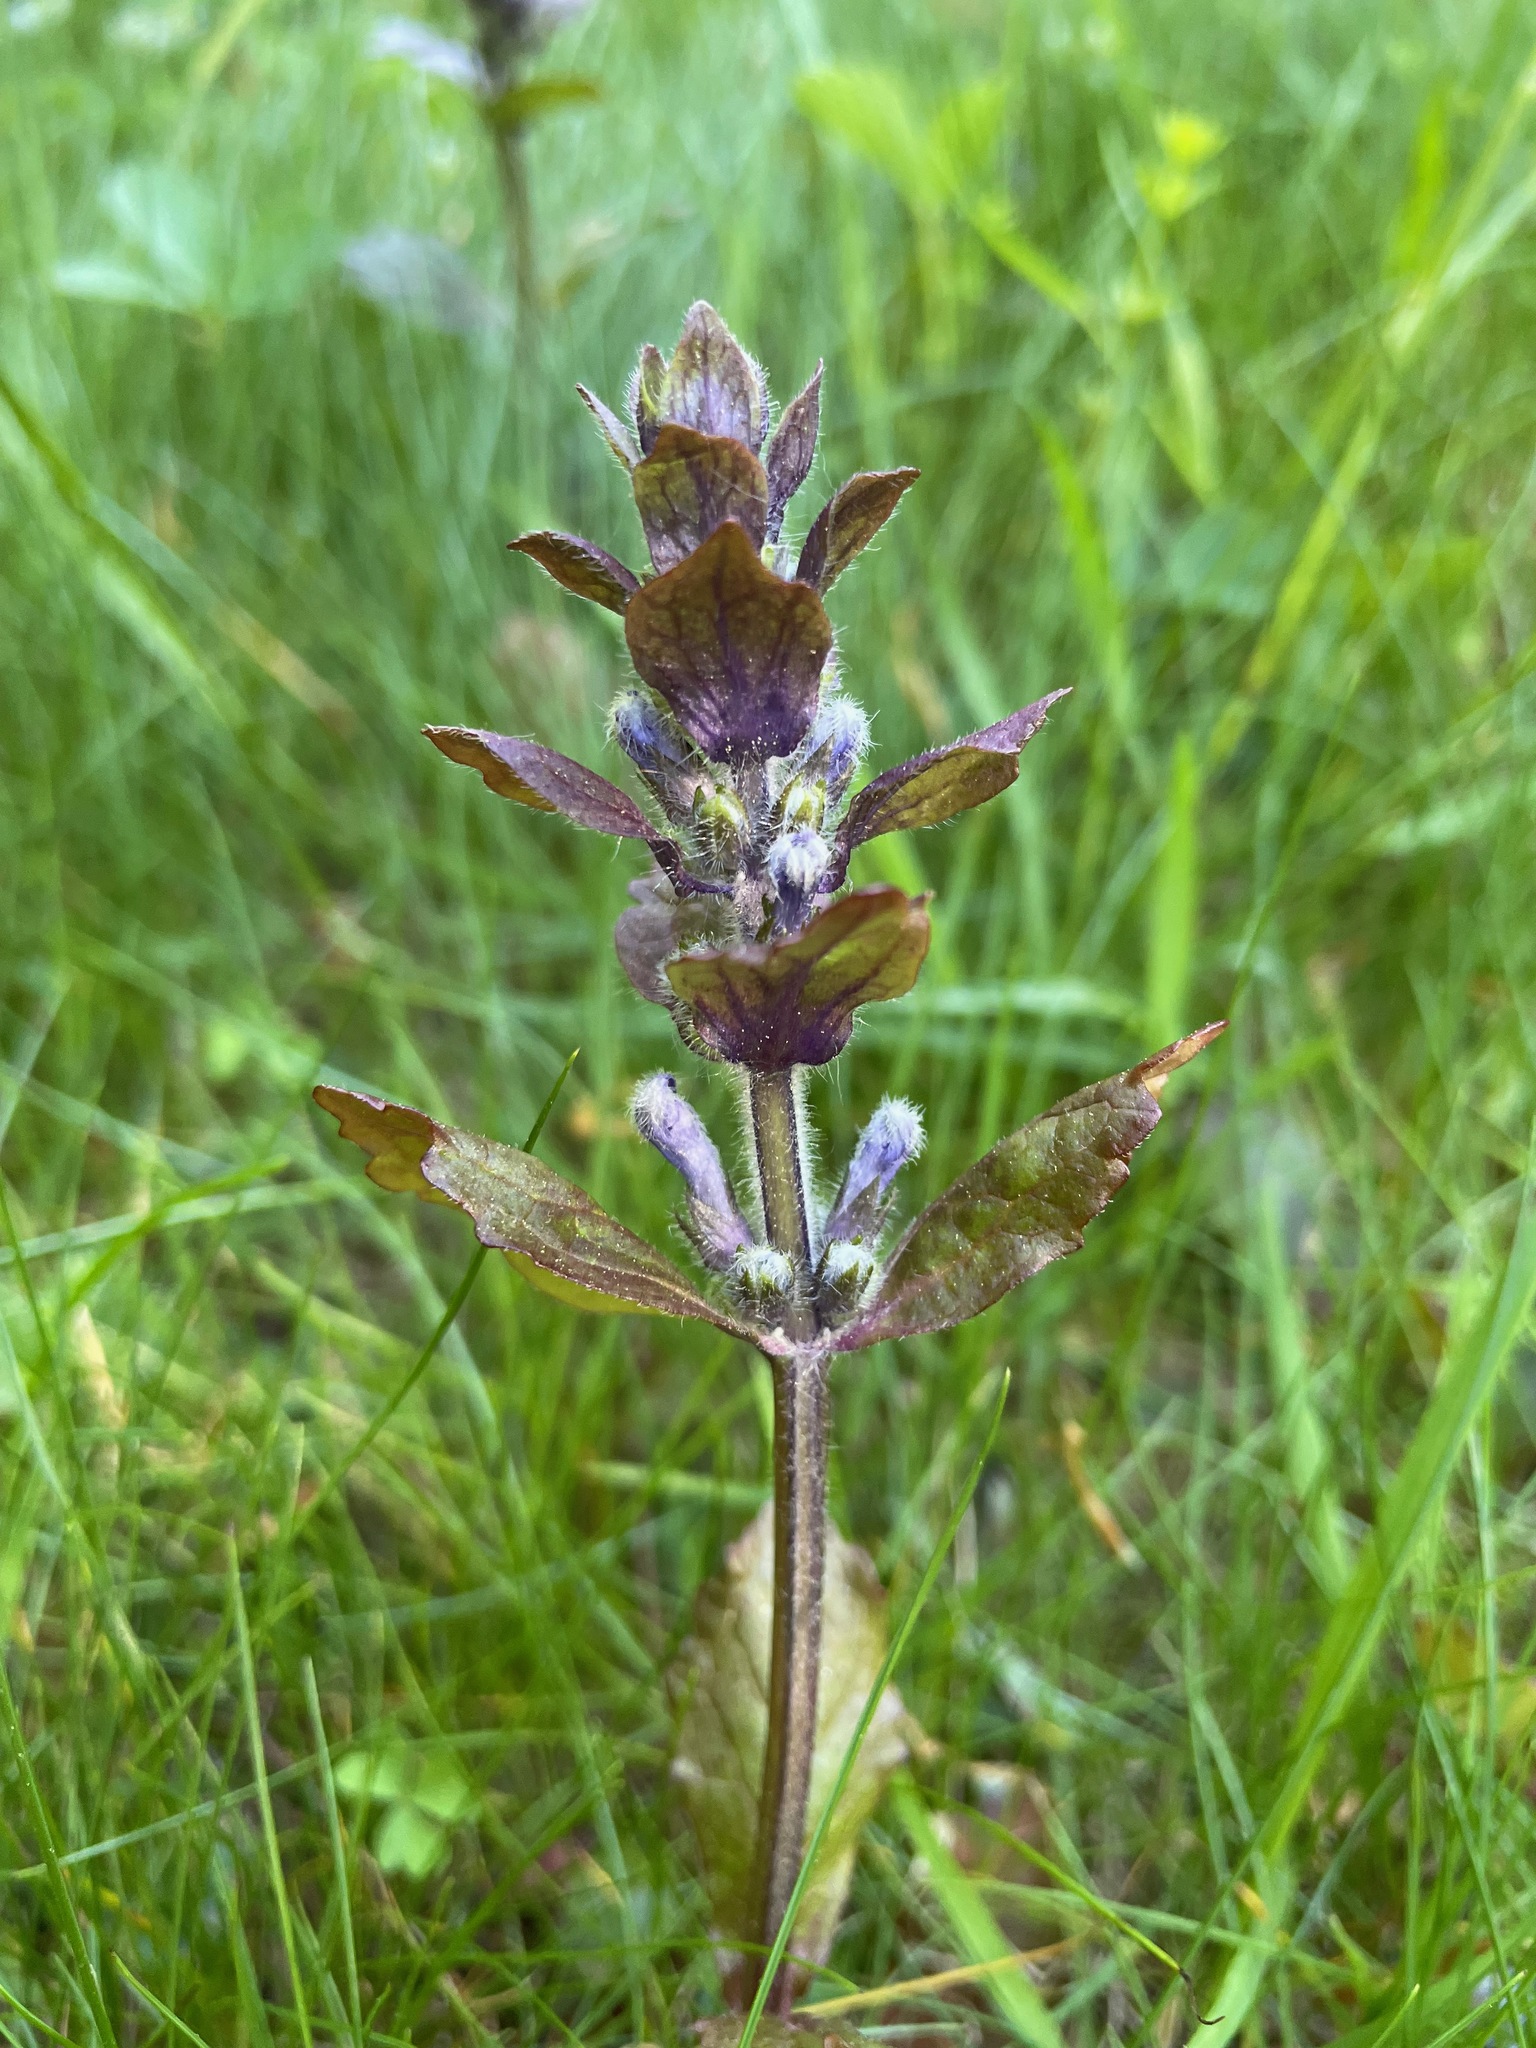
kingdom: Plantae
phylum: Tracheophyta
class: Magnoliopsida
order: Lamiales
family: Lamiaceae
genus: Ajuga
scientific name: Ajuga reptans
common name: Bugle
